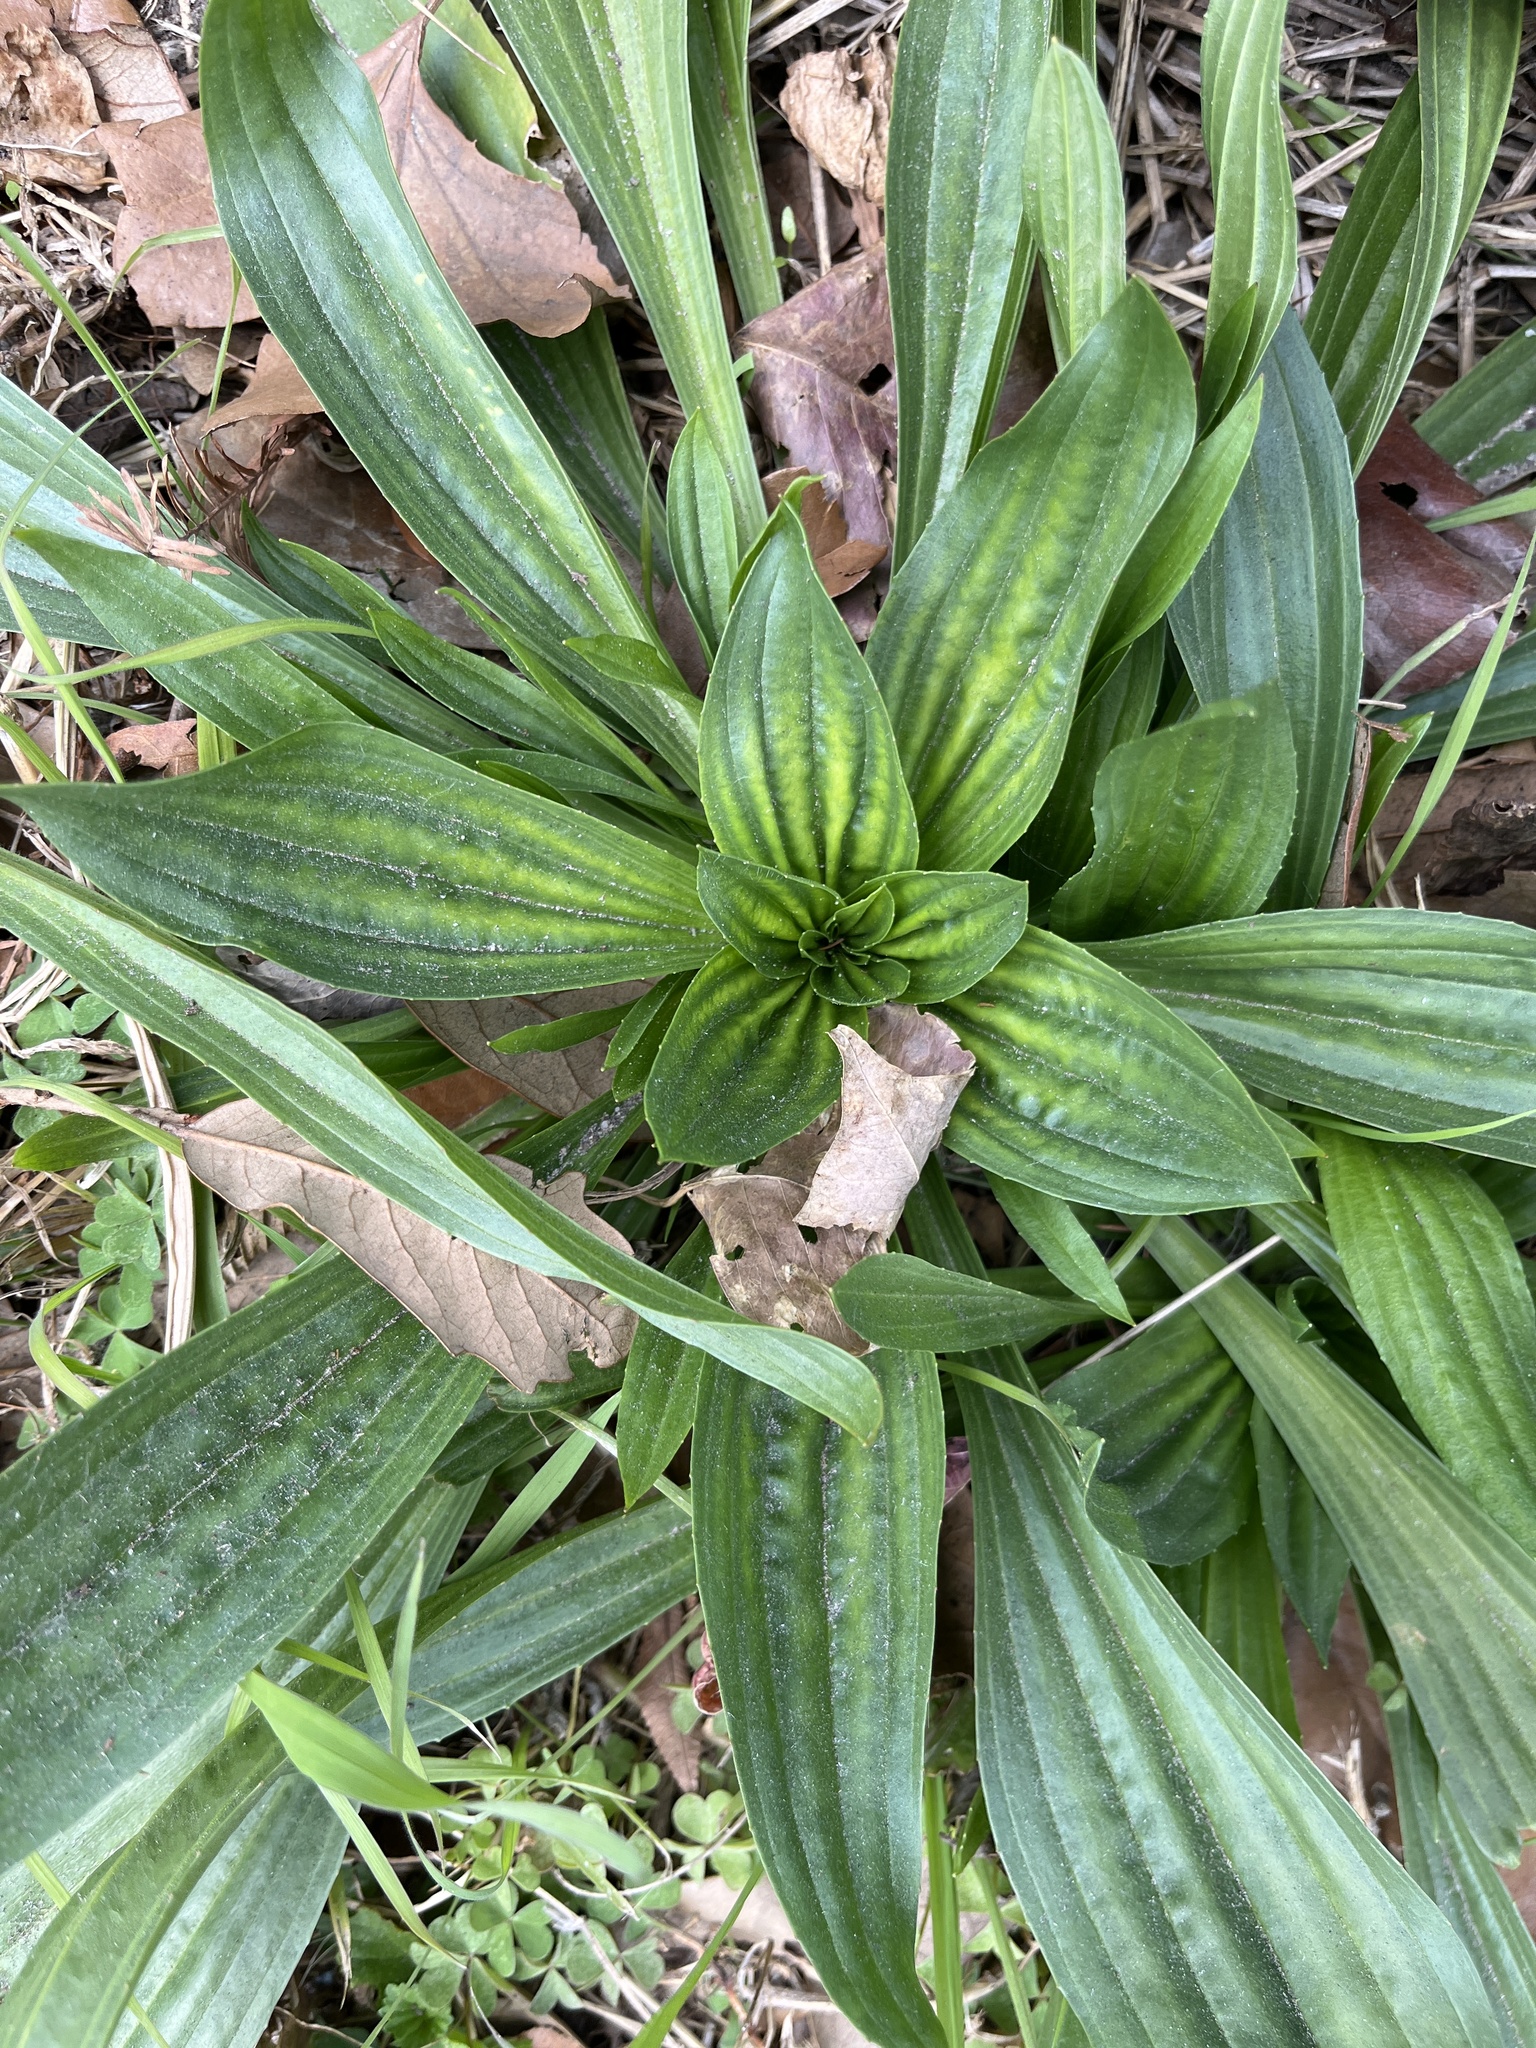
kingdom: Plantae
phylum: Tracheophyta
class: Magnoliopsida
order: Lamiales
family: Plantaginaceae
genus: Plantago
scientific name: Plantago lanceolata
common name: Ribwort plantain
